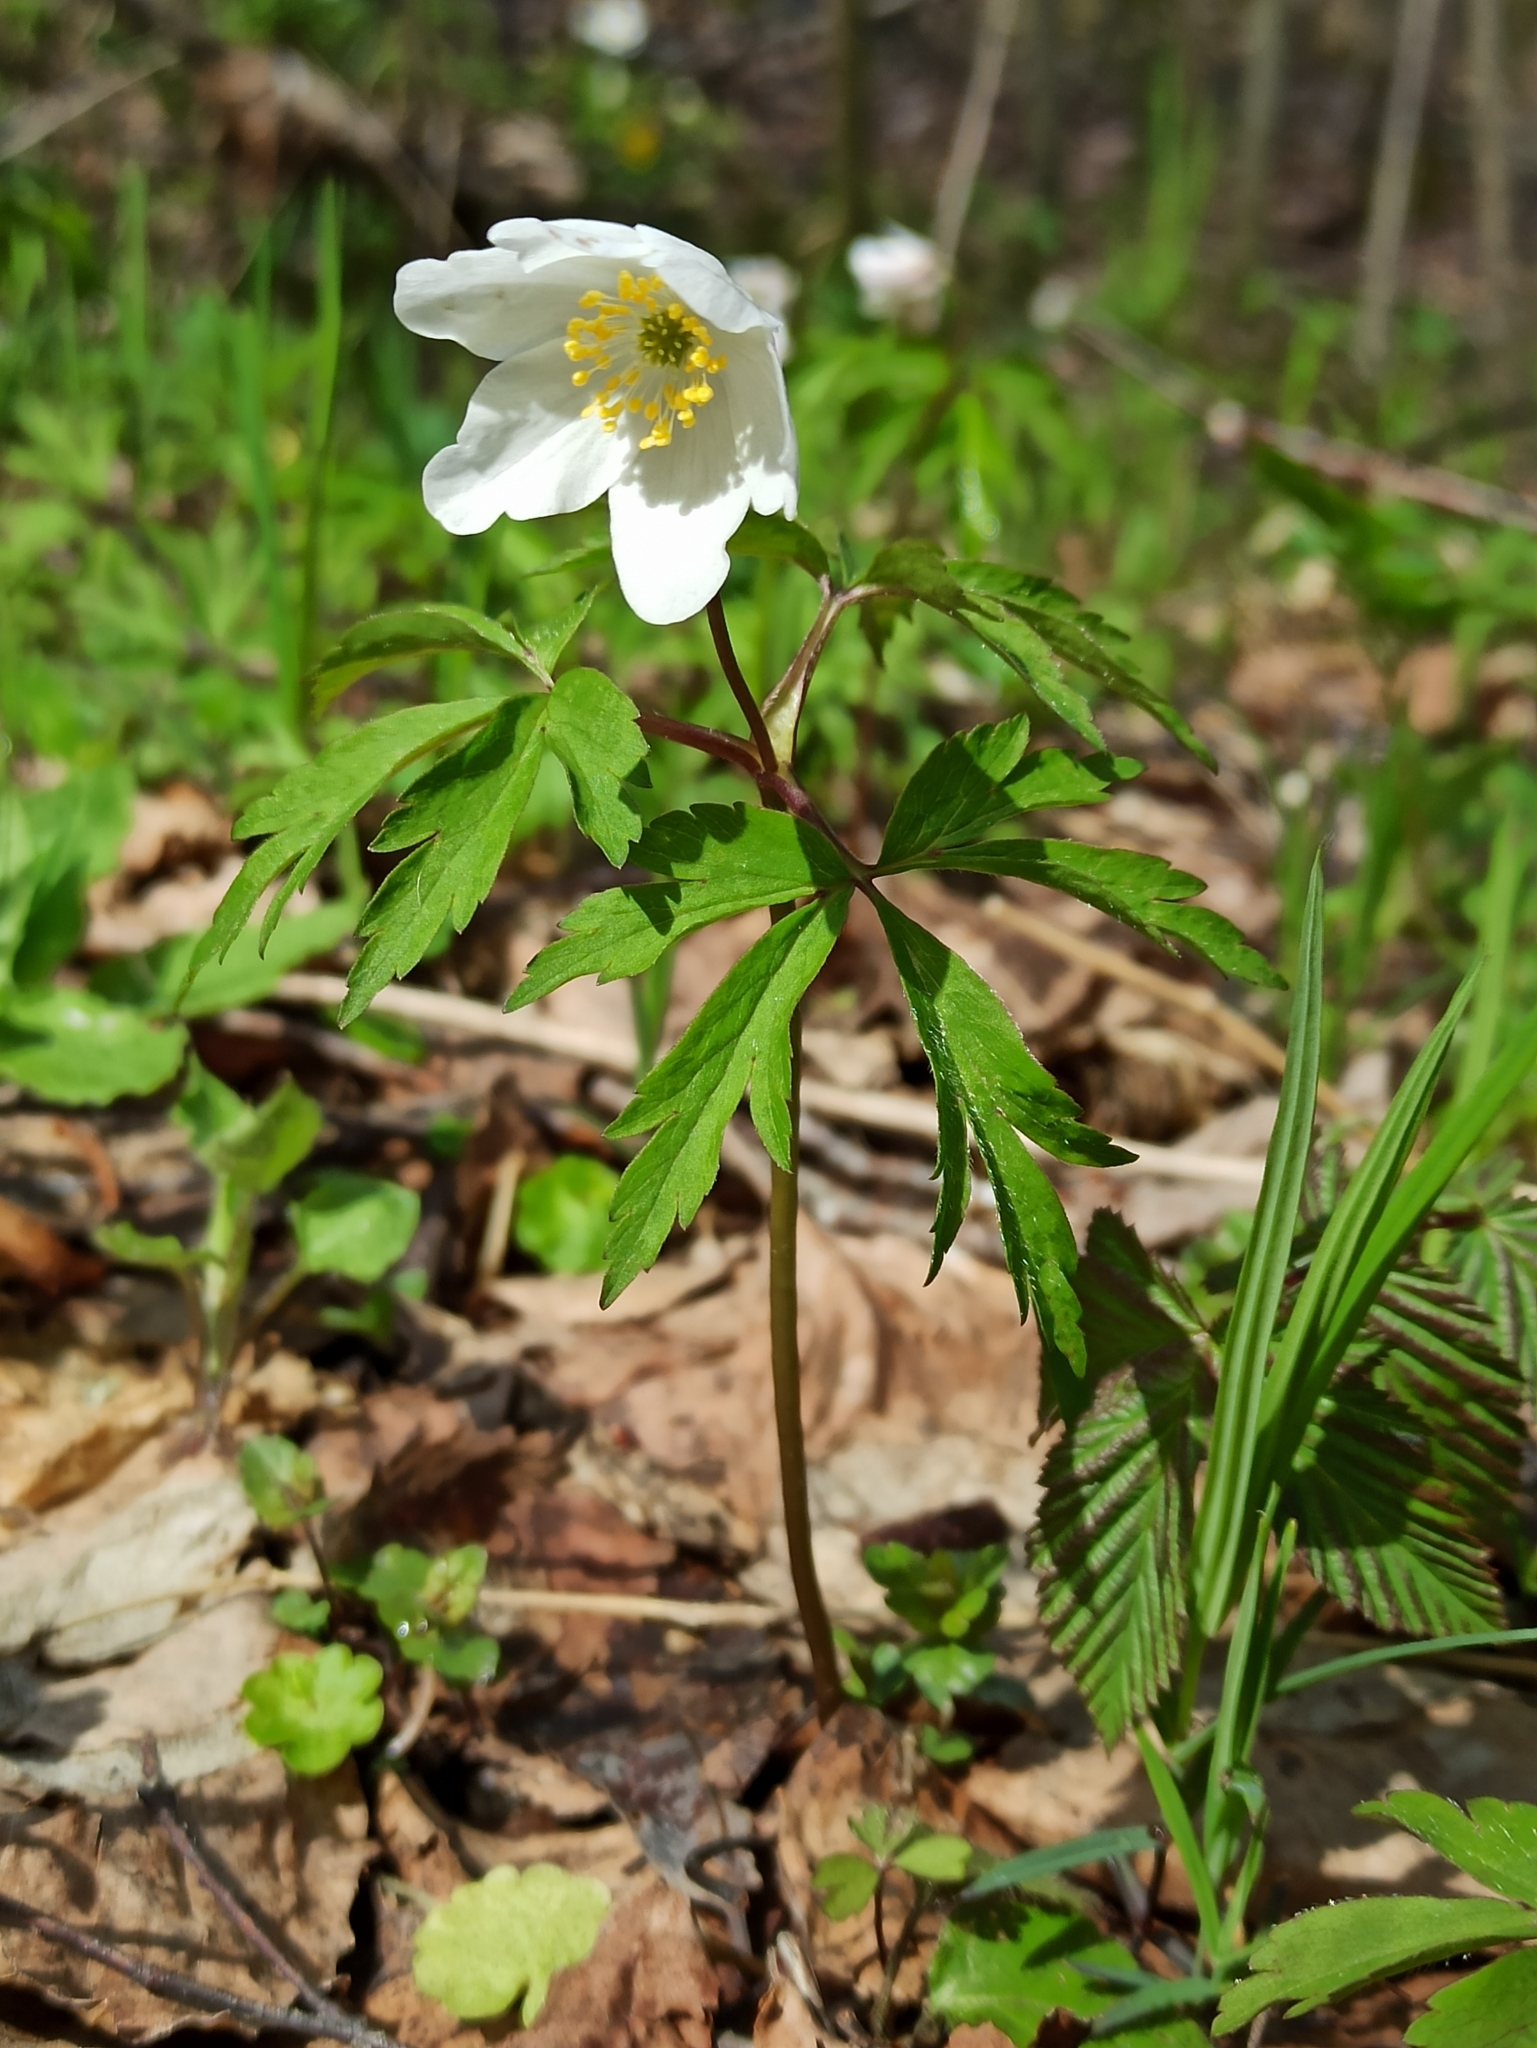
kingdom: Plantae
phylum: Tracheophyta
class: Magnoliopsida
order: Ranunculales
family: Ranunculaceae
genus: Anemone
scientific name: Anemone nemorosa
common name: Wood anemone
